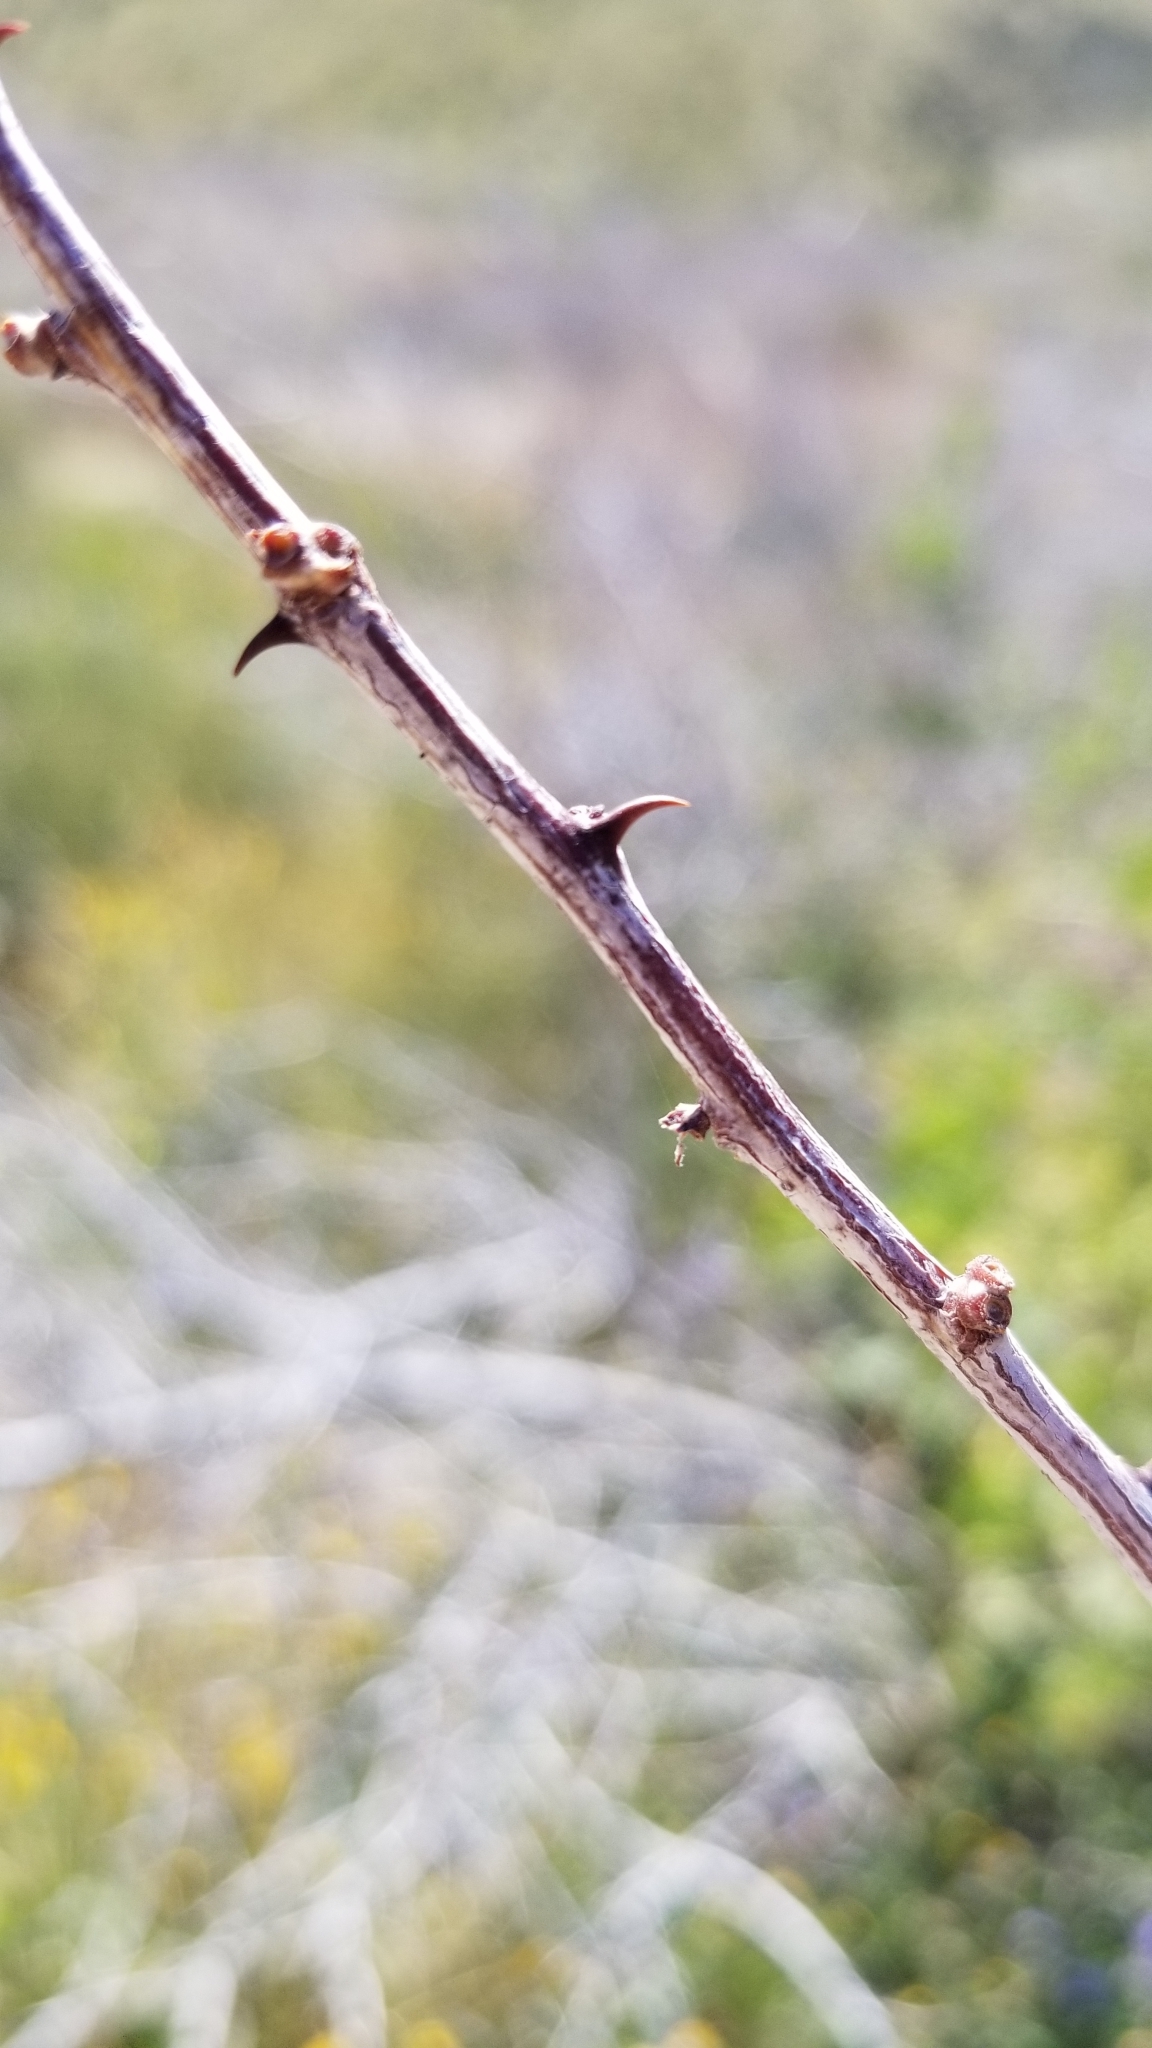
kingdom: Plantae
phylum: Tracheophyta
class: Magnoliopsida
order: Fabales
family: Fabaceae
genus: Senegalia
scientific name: Senegalia greggii
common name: Texas-mimosa
